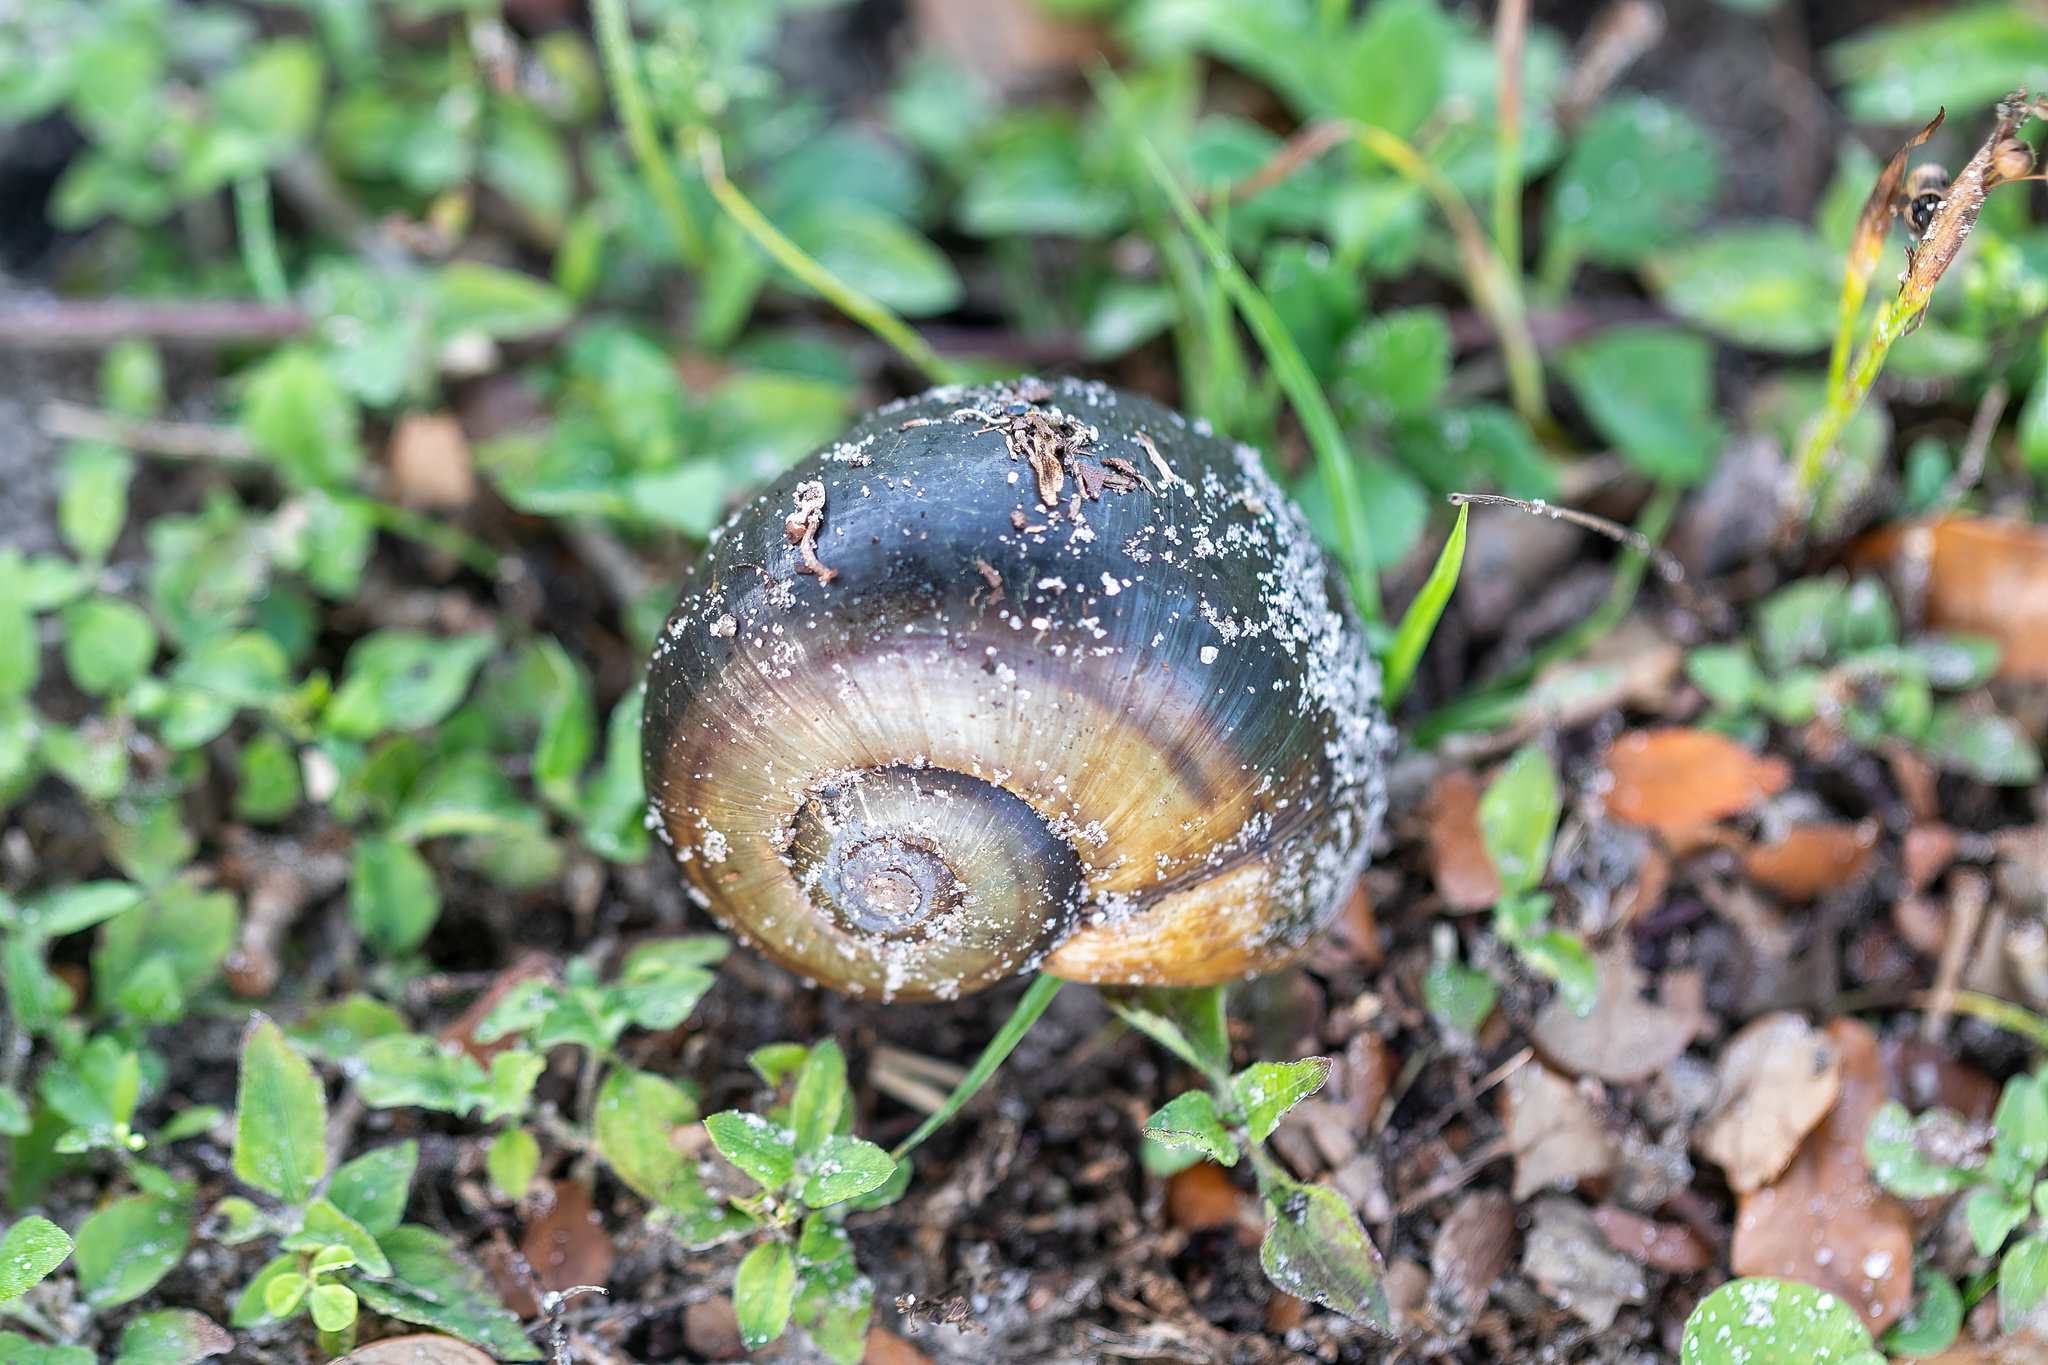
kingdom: Animalia
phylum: Mollusca
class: Gastropoda
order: Architaenioglossa
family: Ampullariidae
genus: Pomacea
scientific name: Pomacea paludosa
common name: Florida applesnail
